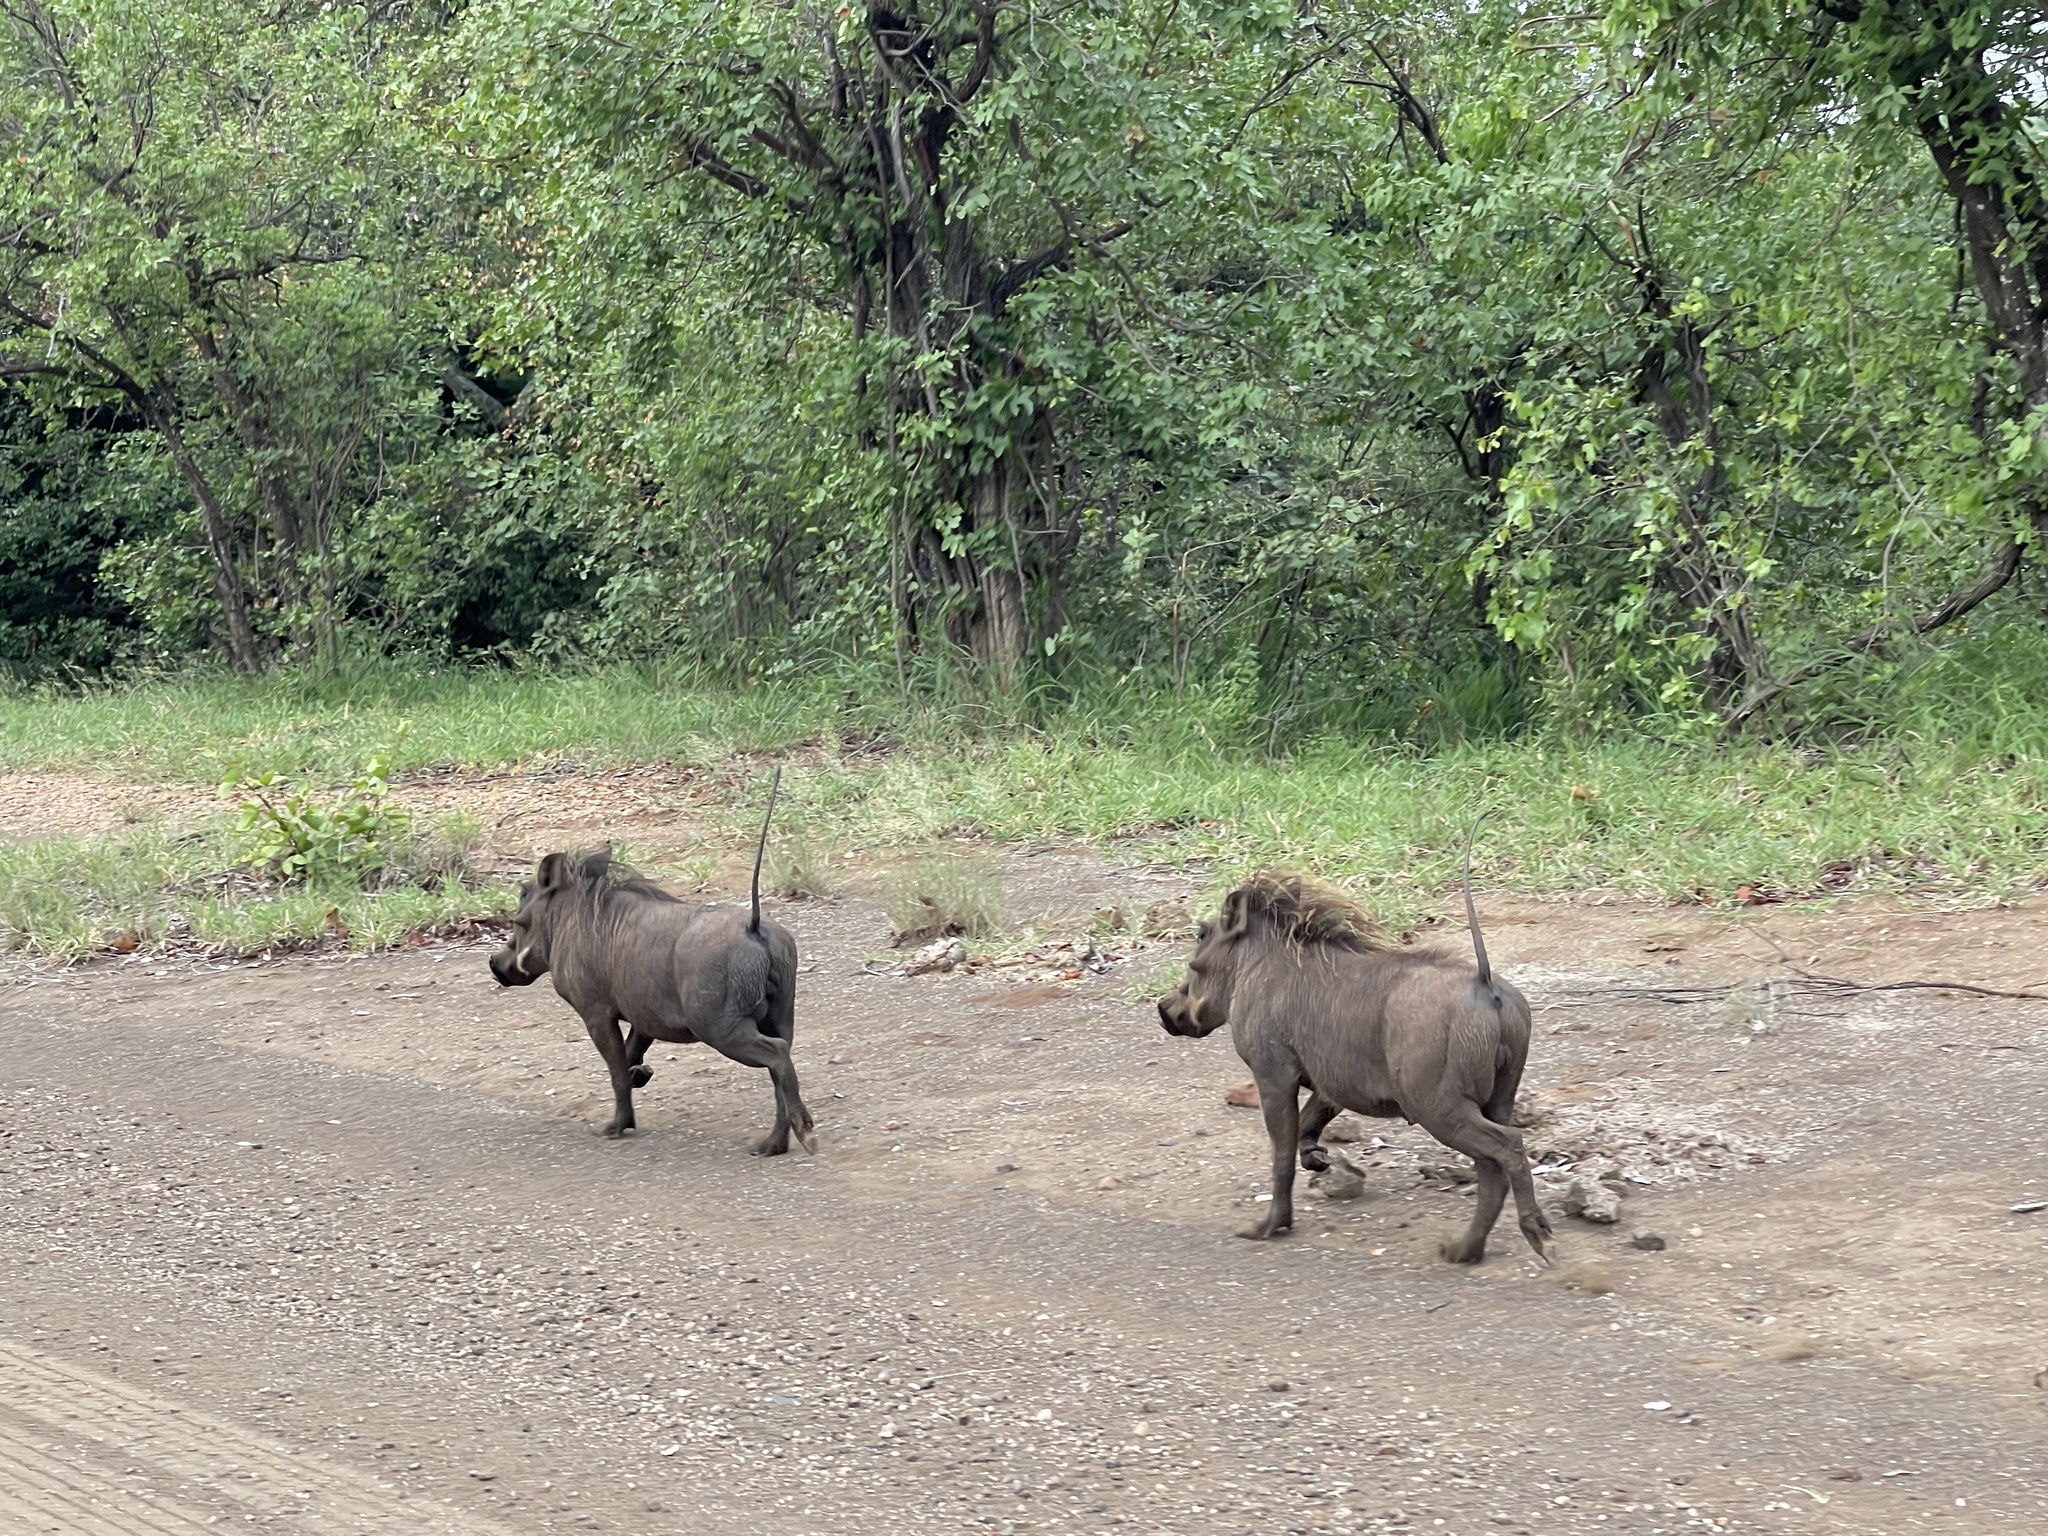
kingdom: Animalia
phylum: Chordata
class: Mammalia
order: Artiodactyla
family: Suidae
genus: Phacochoerus
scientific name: Phacochoerus africanus
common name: Common warthog
